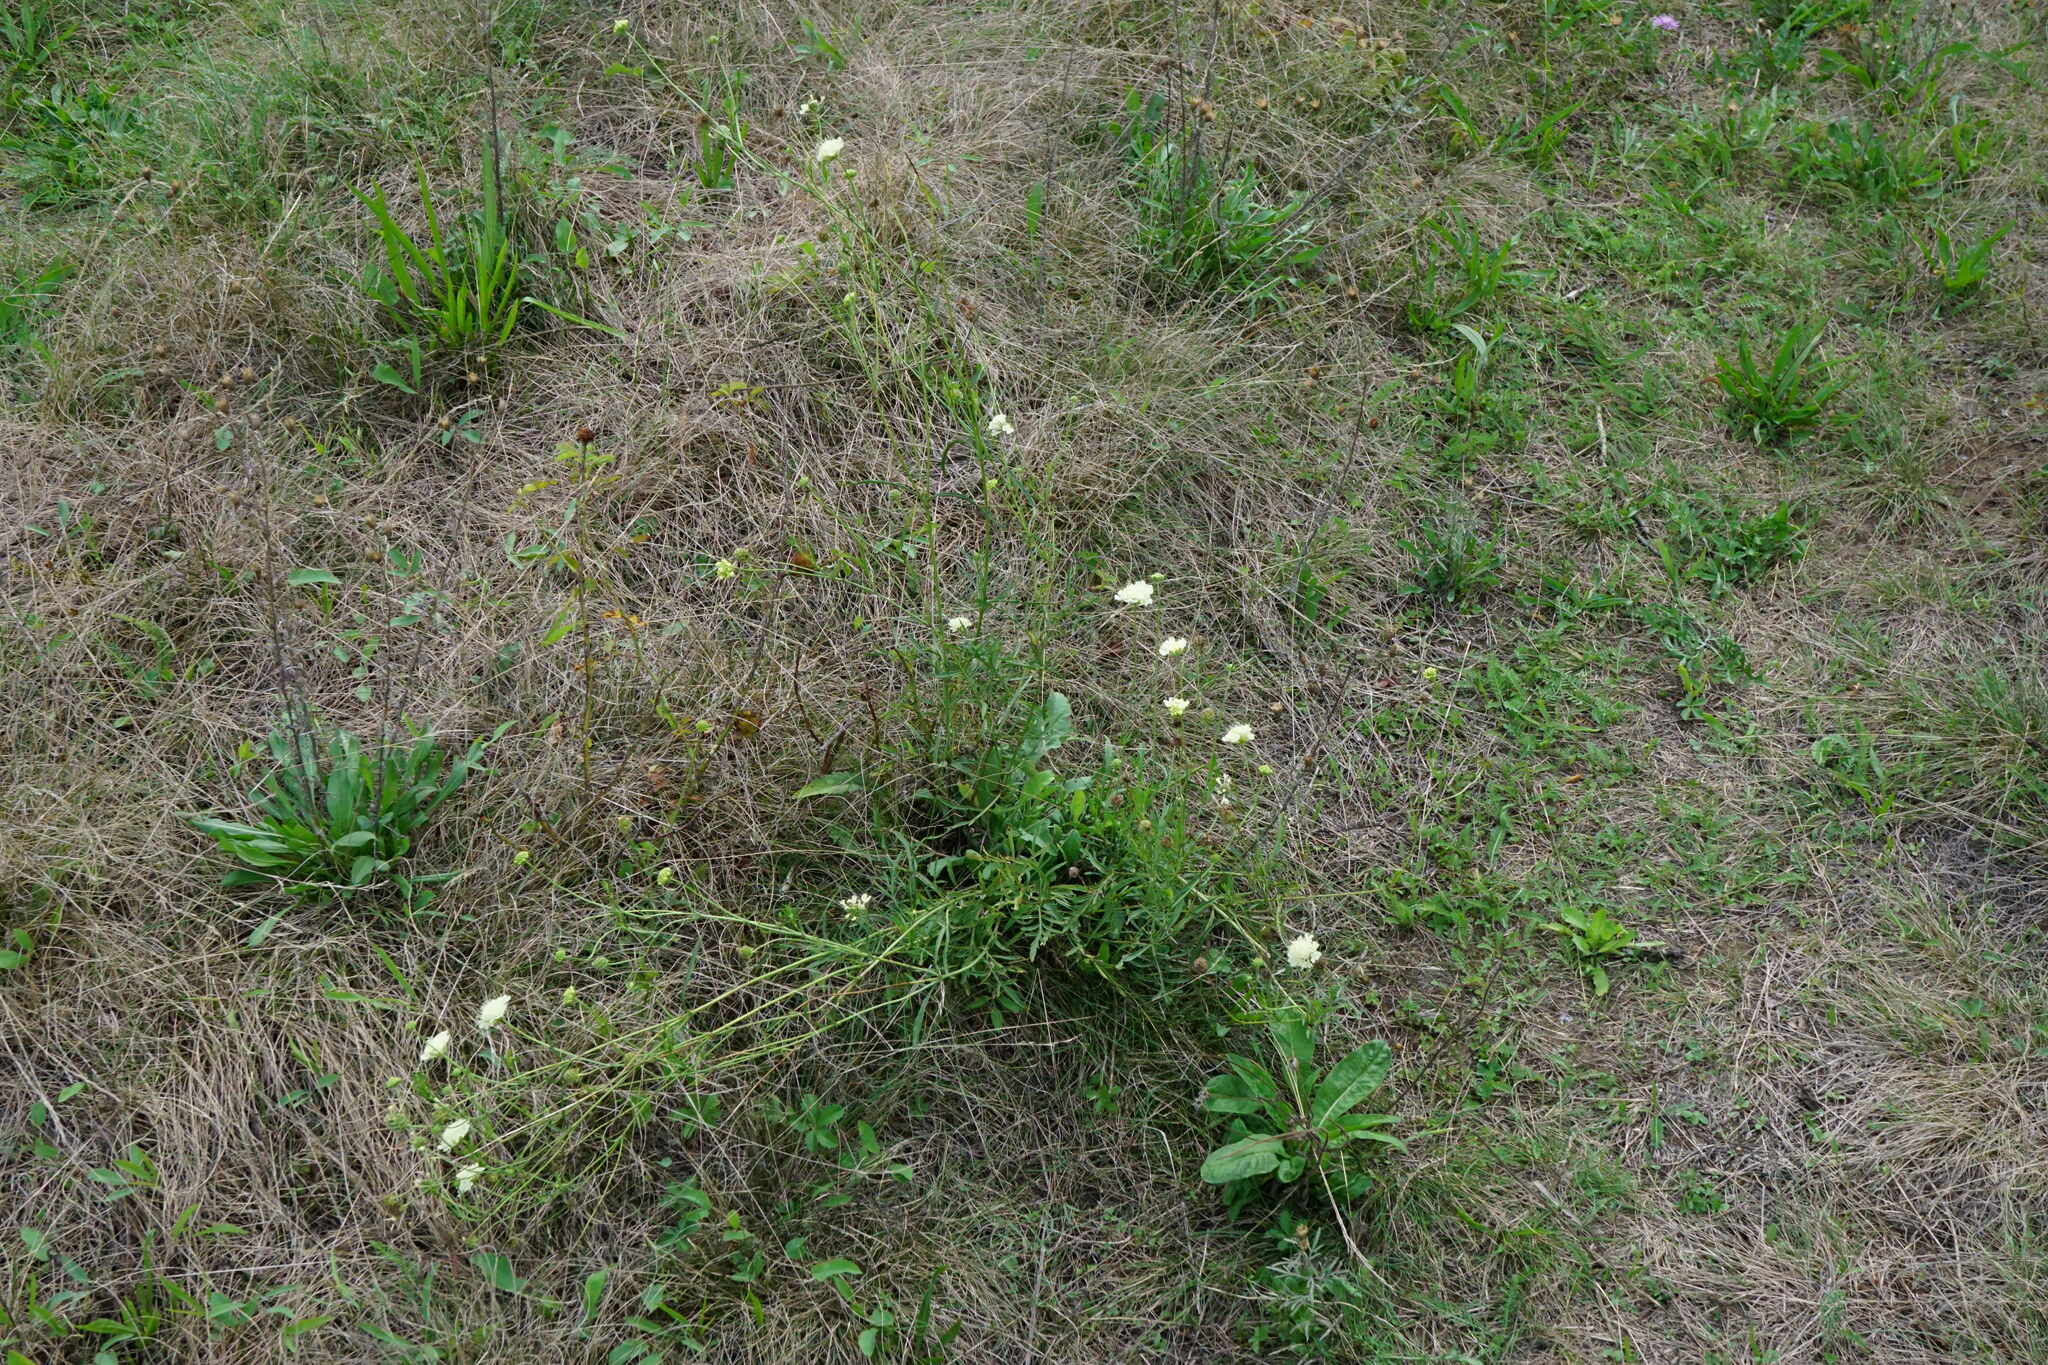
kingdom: Plantae
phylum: Tracheophyta
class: Magnoliopsida
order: Dipsacales
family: Caprifoliaceae
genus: Scabiosa
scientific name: Scabiosa ochroleuca
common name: Cream pincushions
